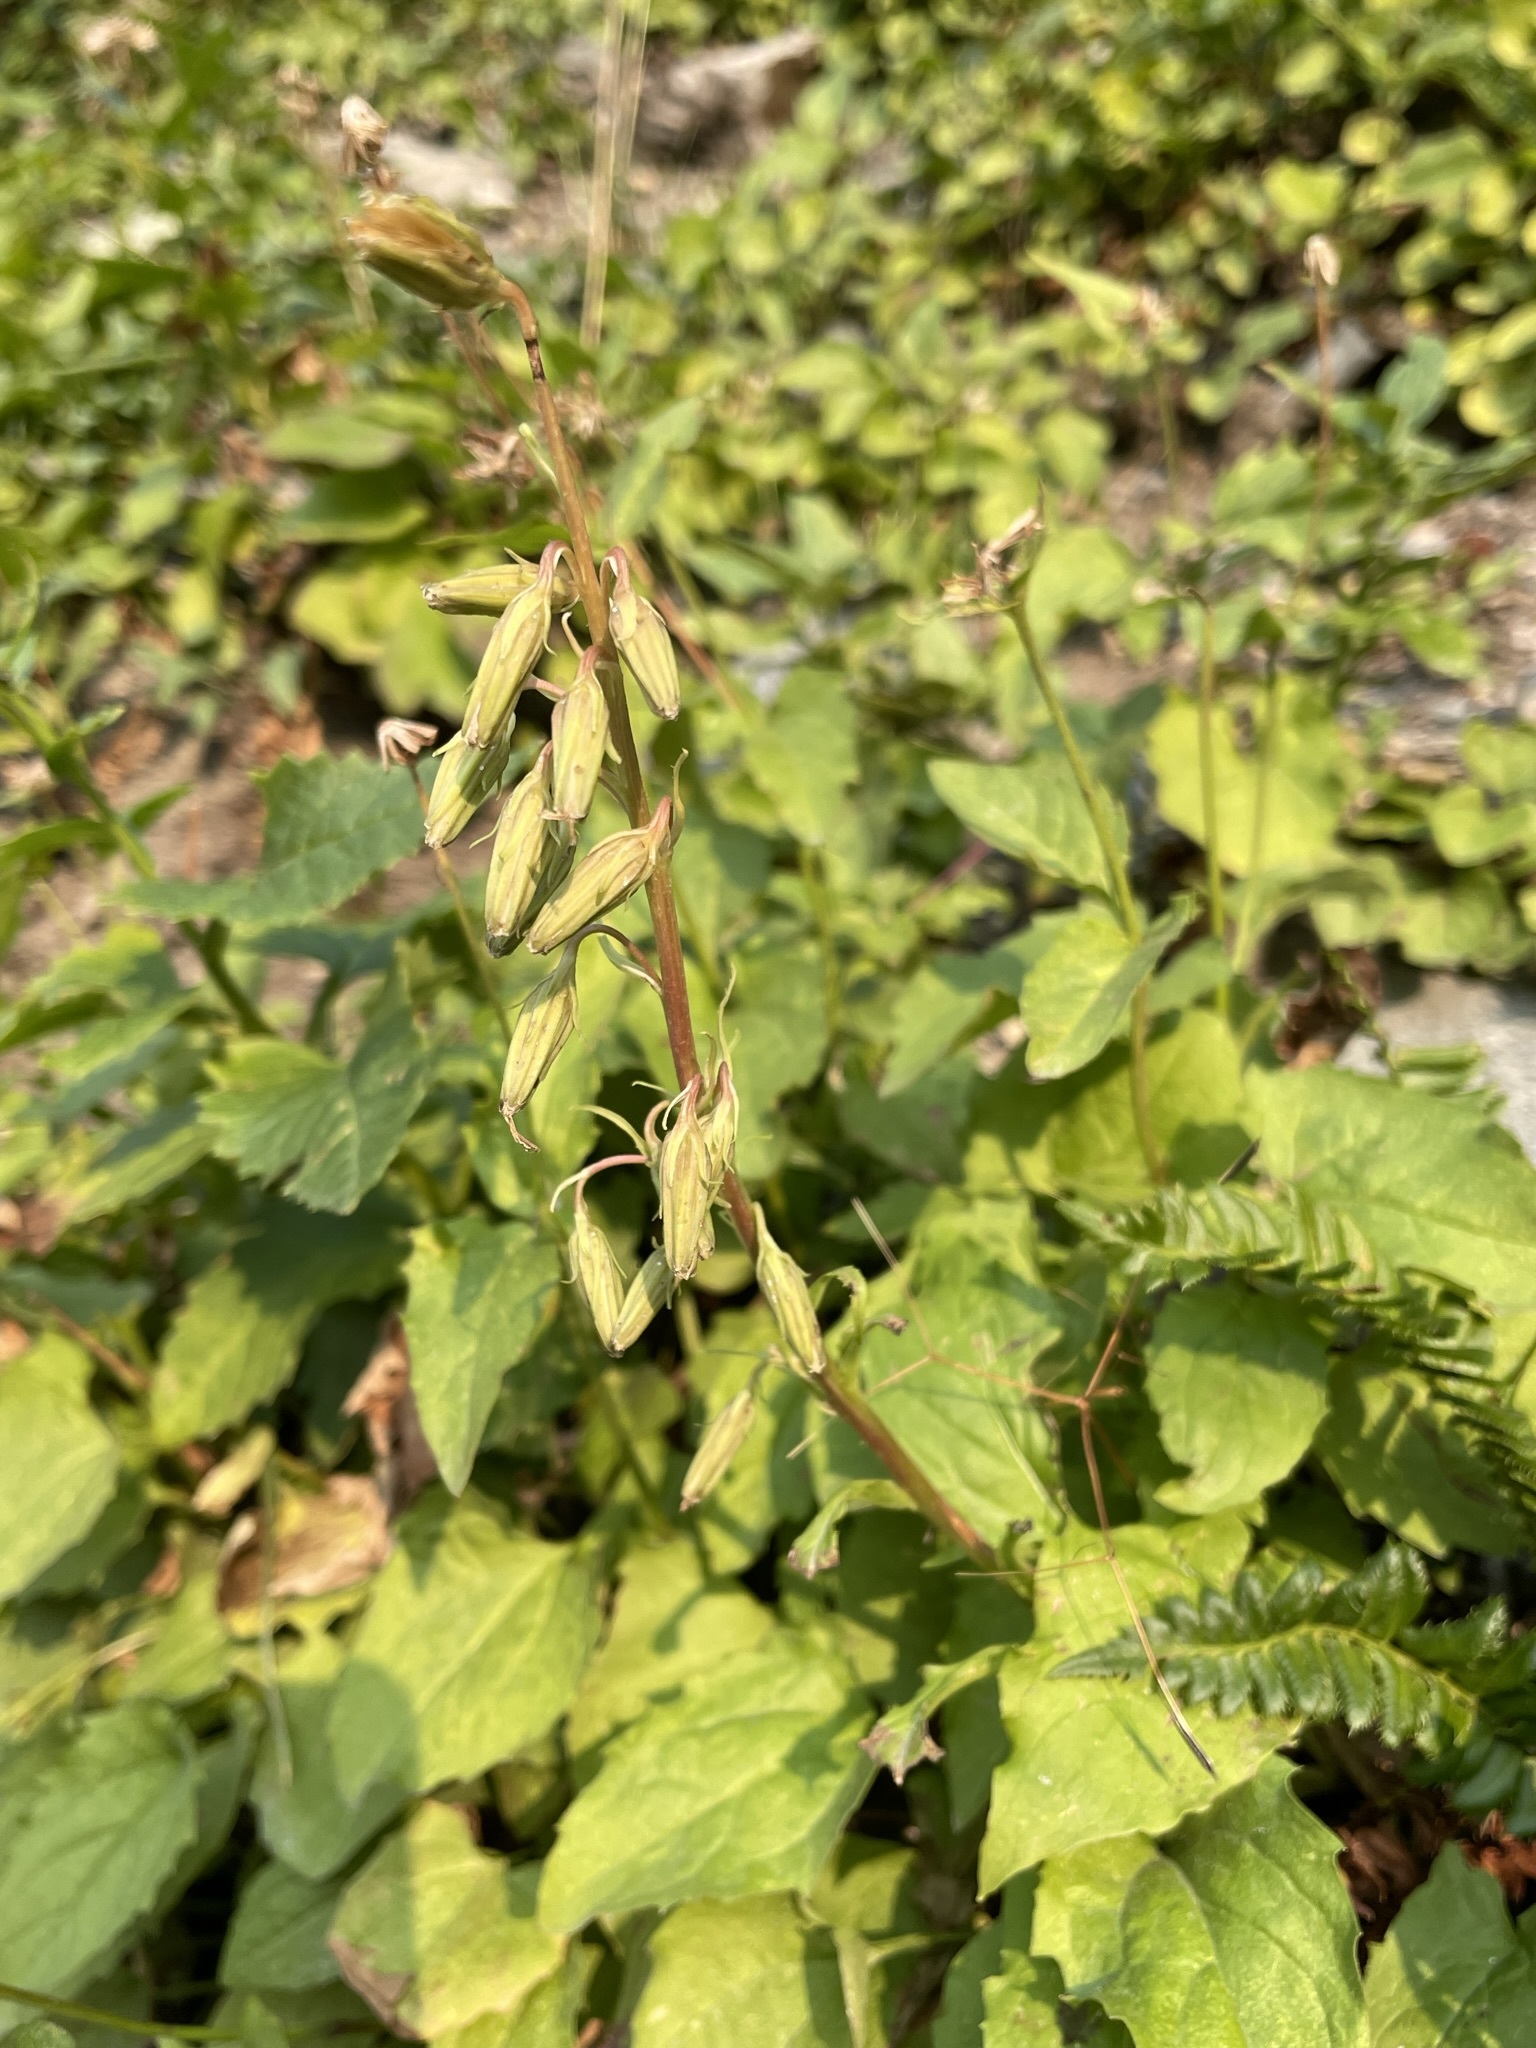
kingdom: Plantae
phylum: Tracheophyta
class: Magnoliopsida
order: Asterales
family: Asteraceae
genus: Nabalus
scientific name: Nabalus sagittatus
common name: Arrowleaf snakeroot
